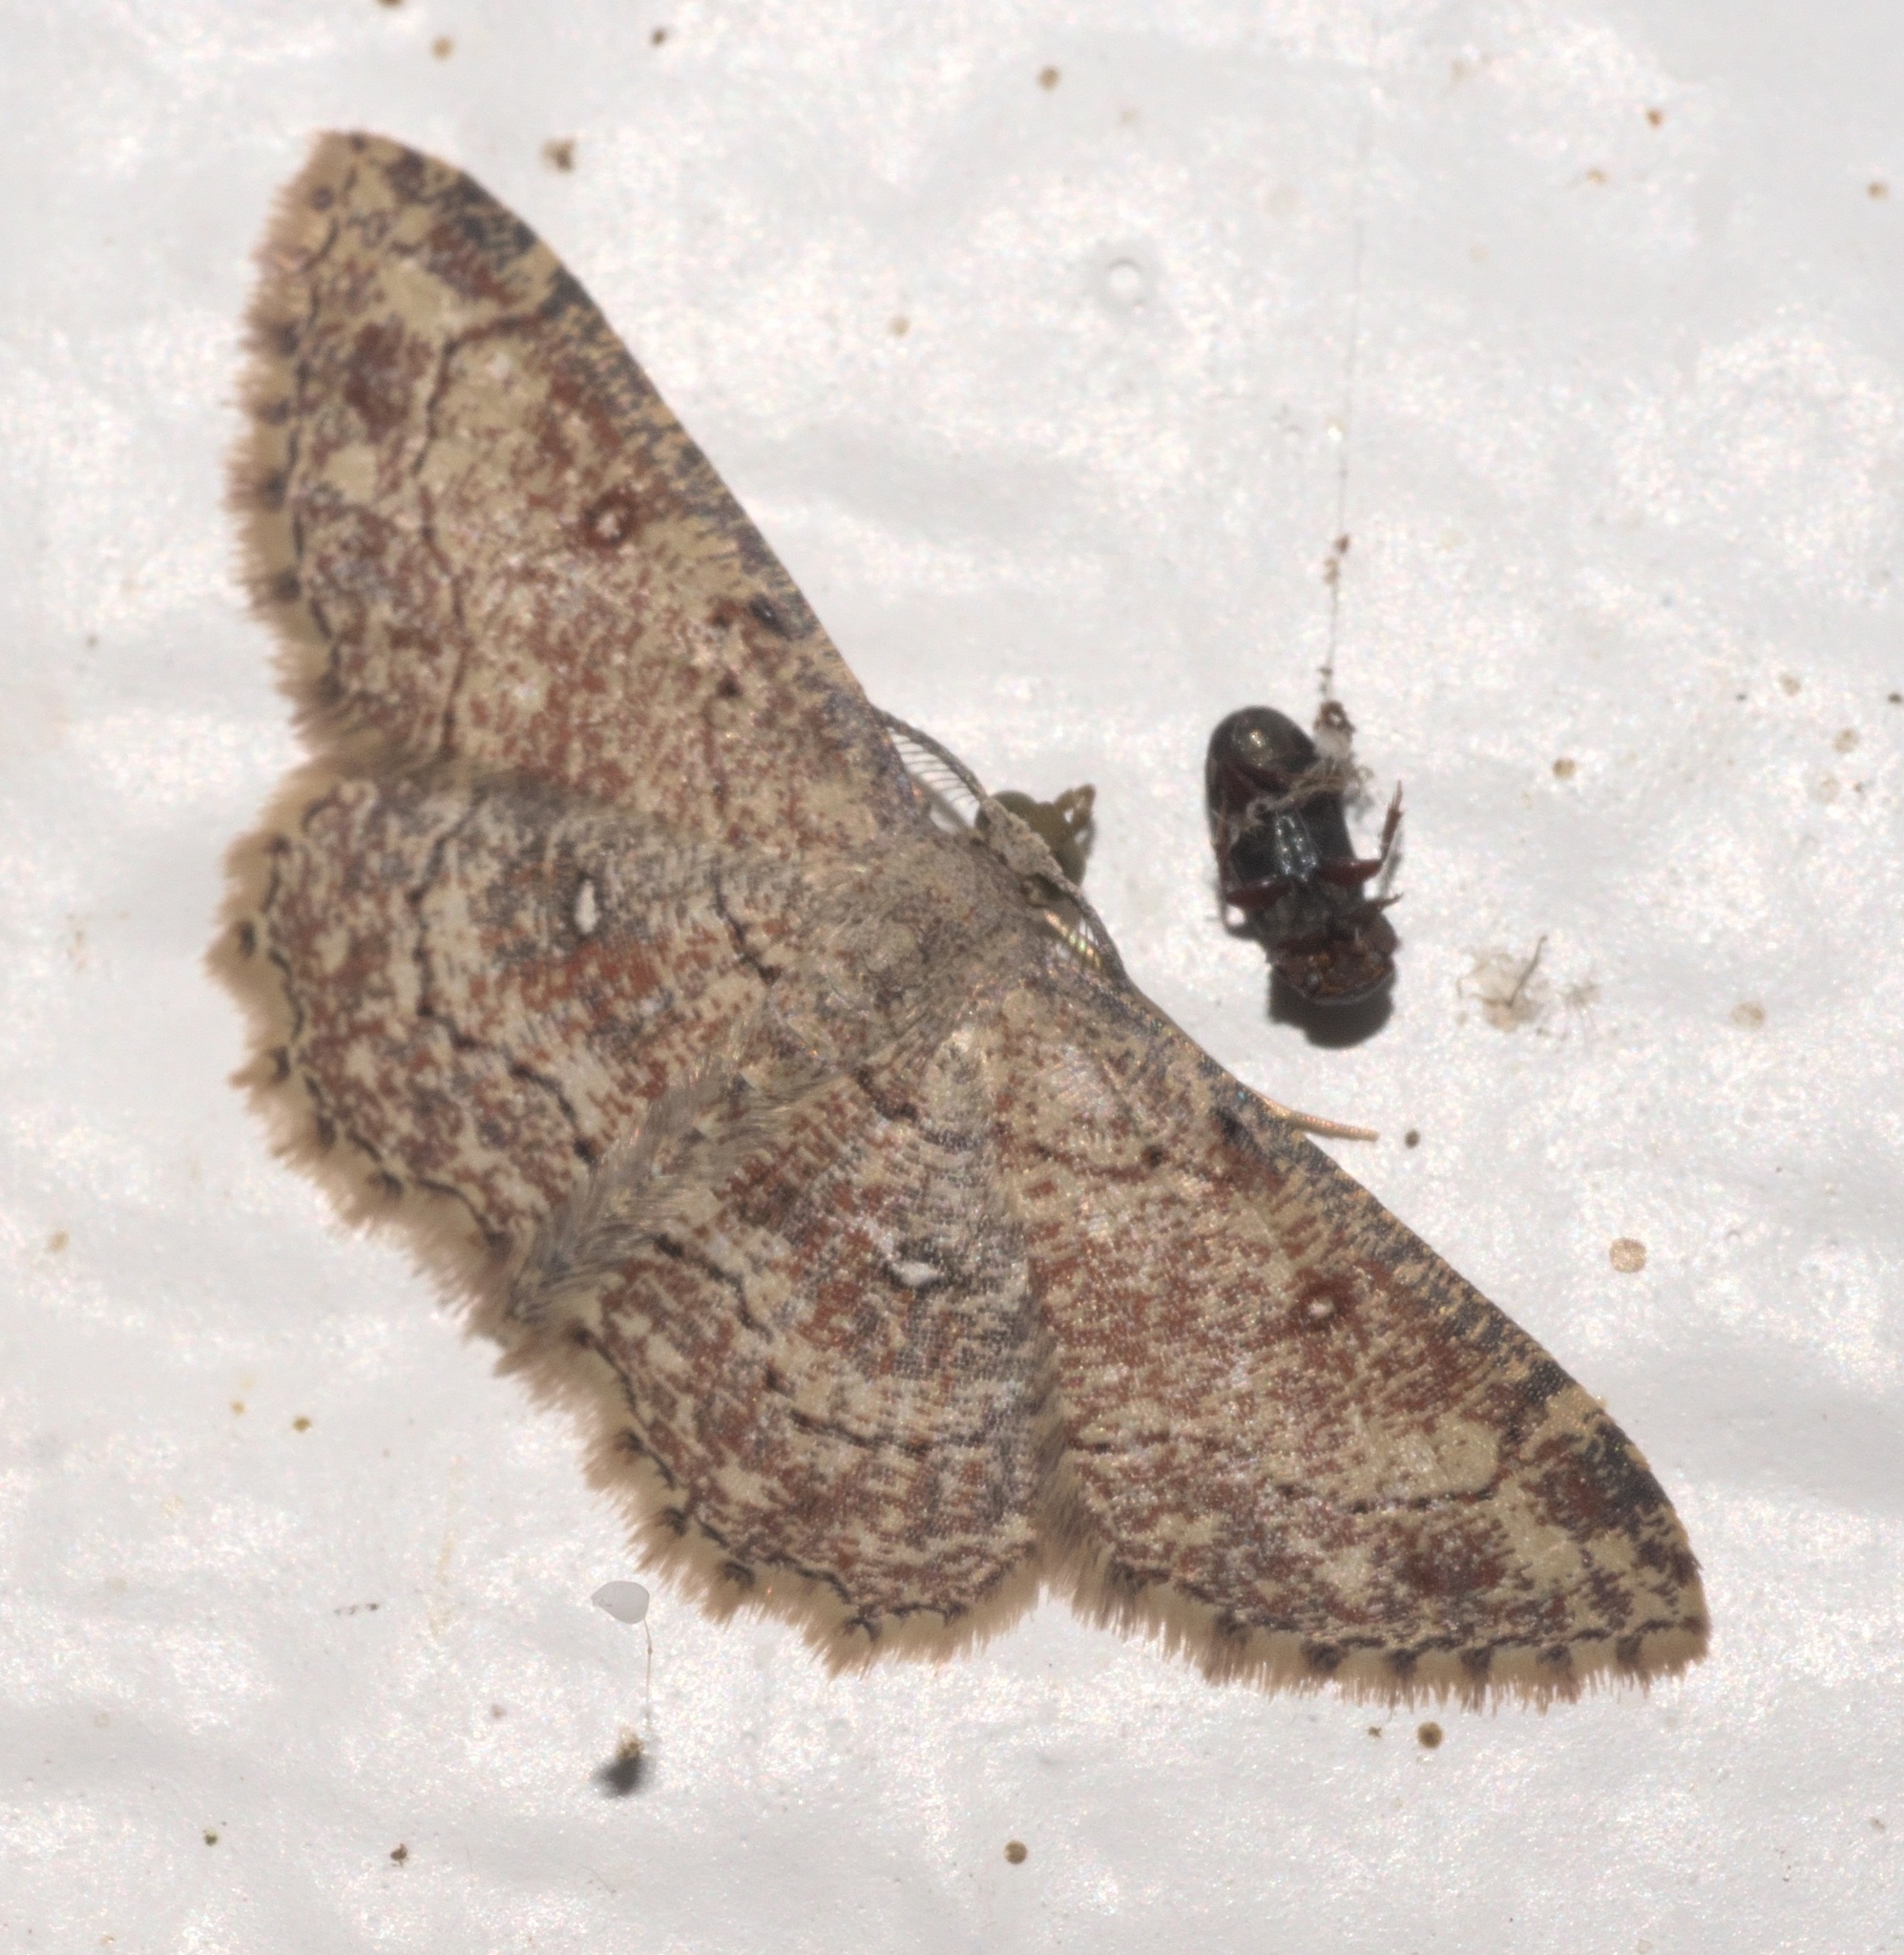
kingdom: Animalia
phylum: Arthropoda
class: Insecta
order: Lepidoptera
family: Geometridae
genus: Cyclophora
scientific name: Cyclophora nanaria
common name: Cankerworm
